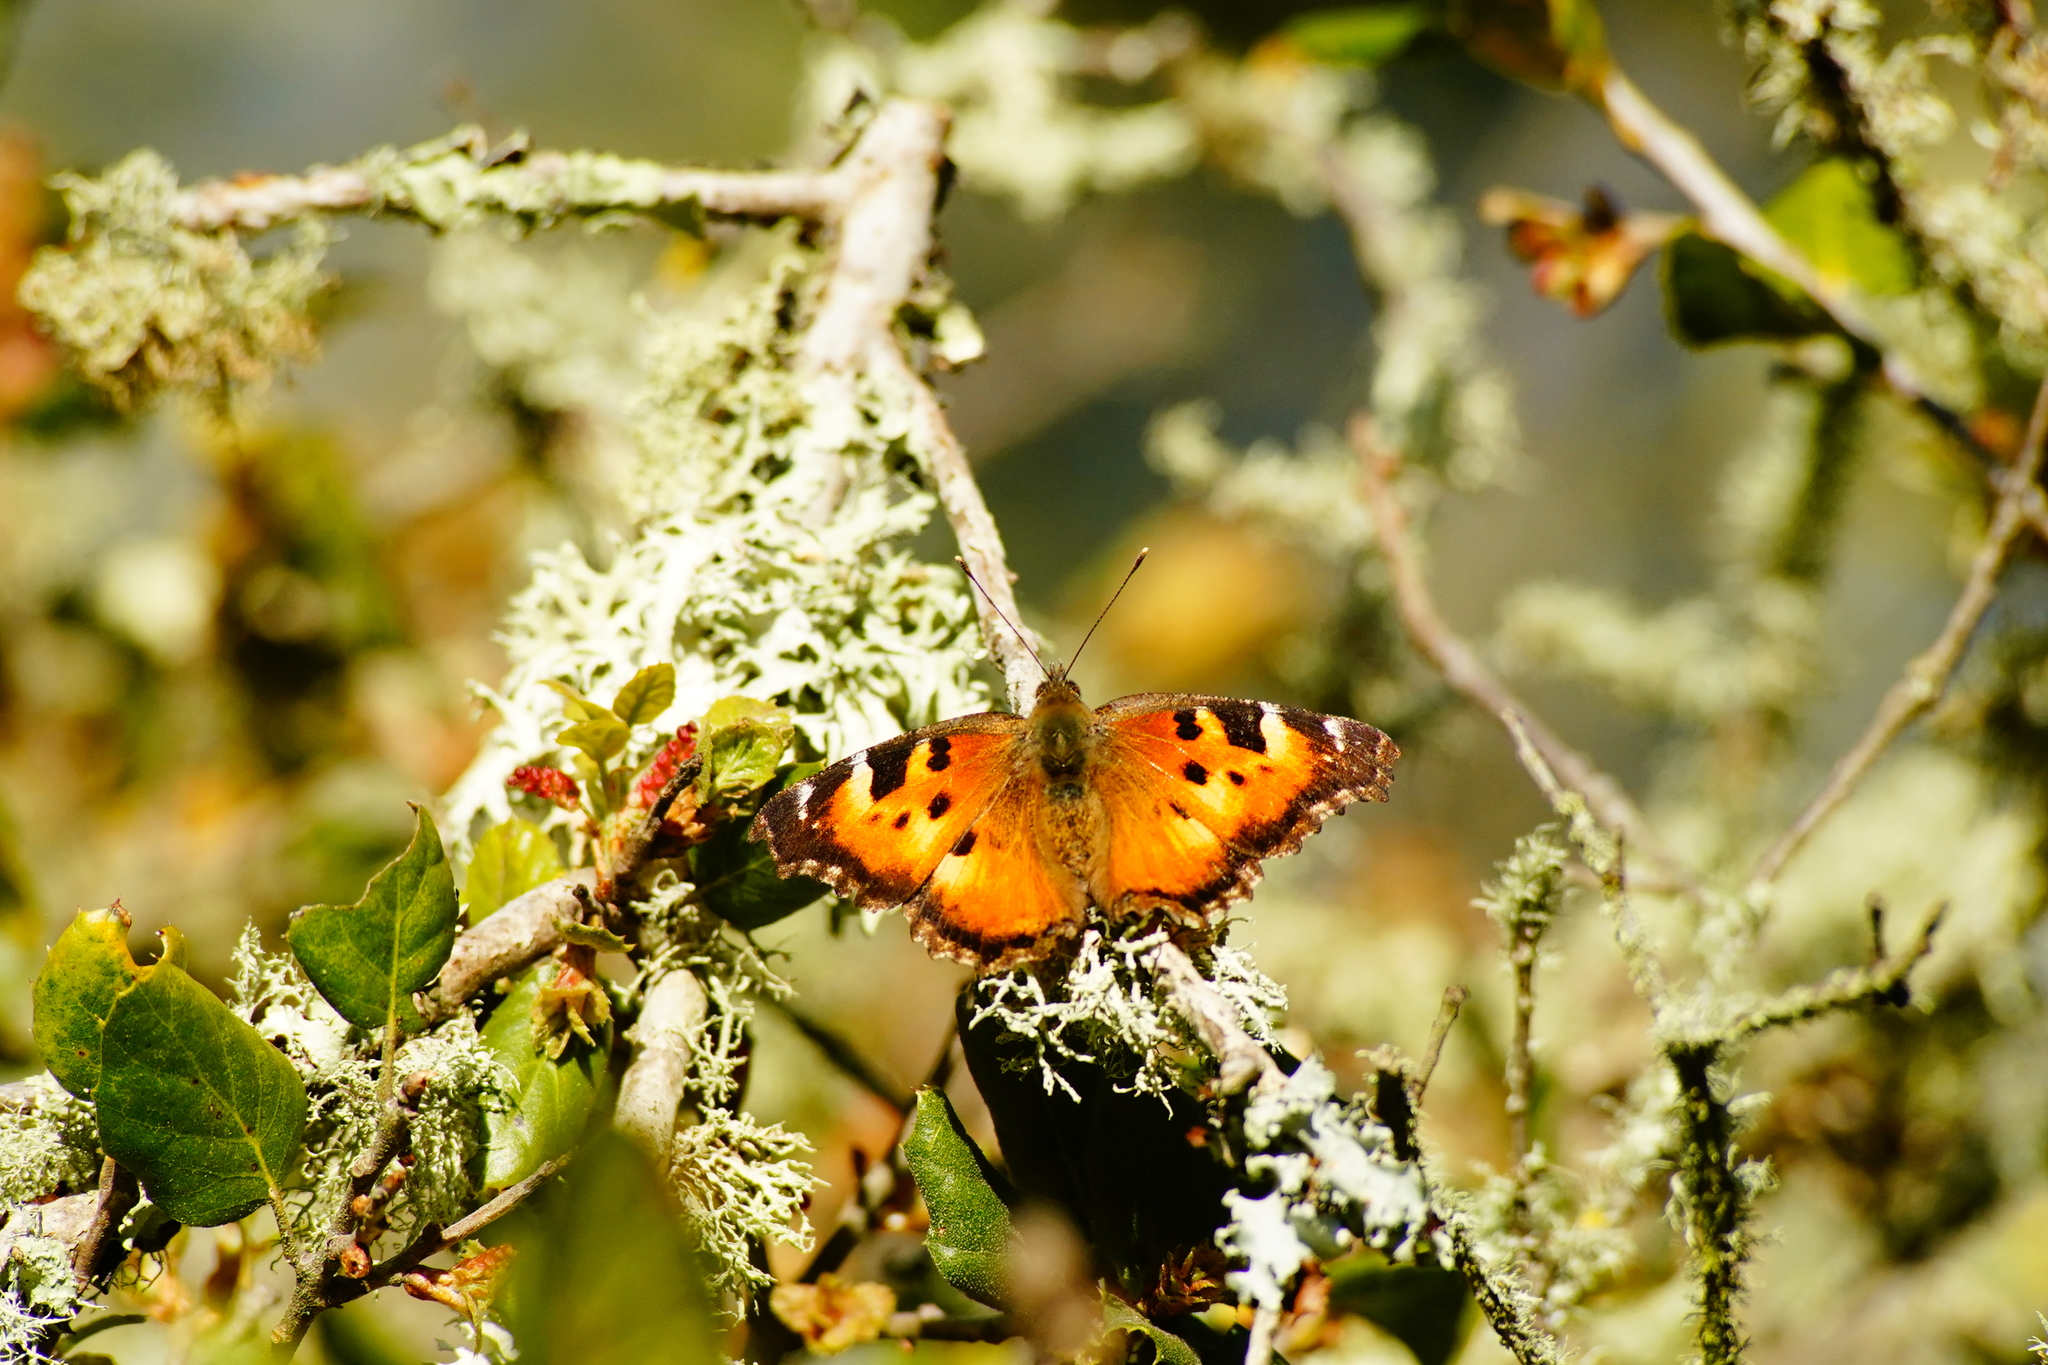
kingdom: Animalia
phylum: Arthropoda
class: Insecta
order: Lepidoptera
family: Nymphalidae
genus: Nymphalis
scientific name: Nymphalis californica
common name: California tortoiseshell
